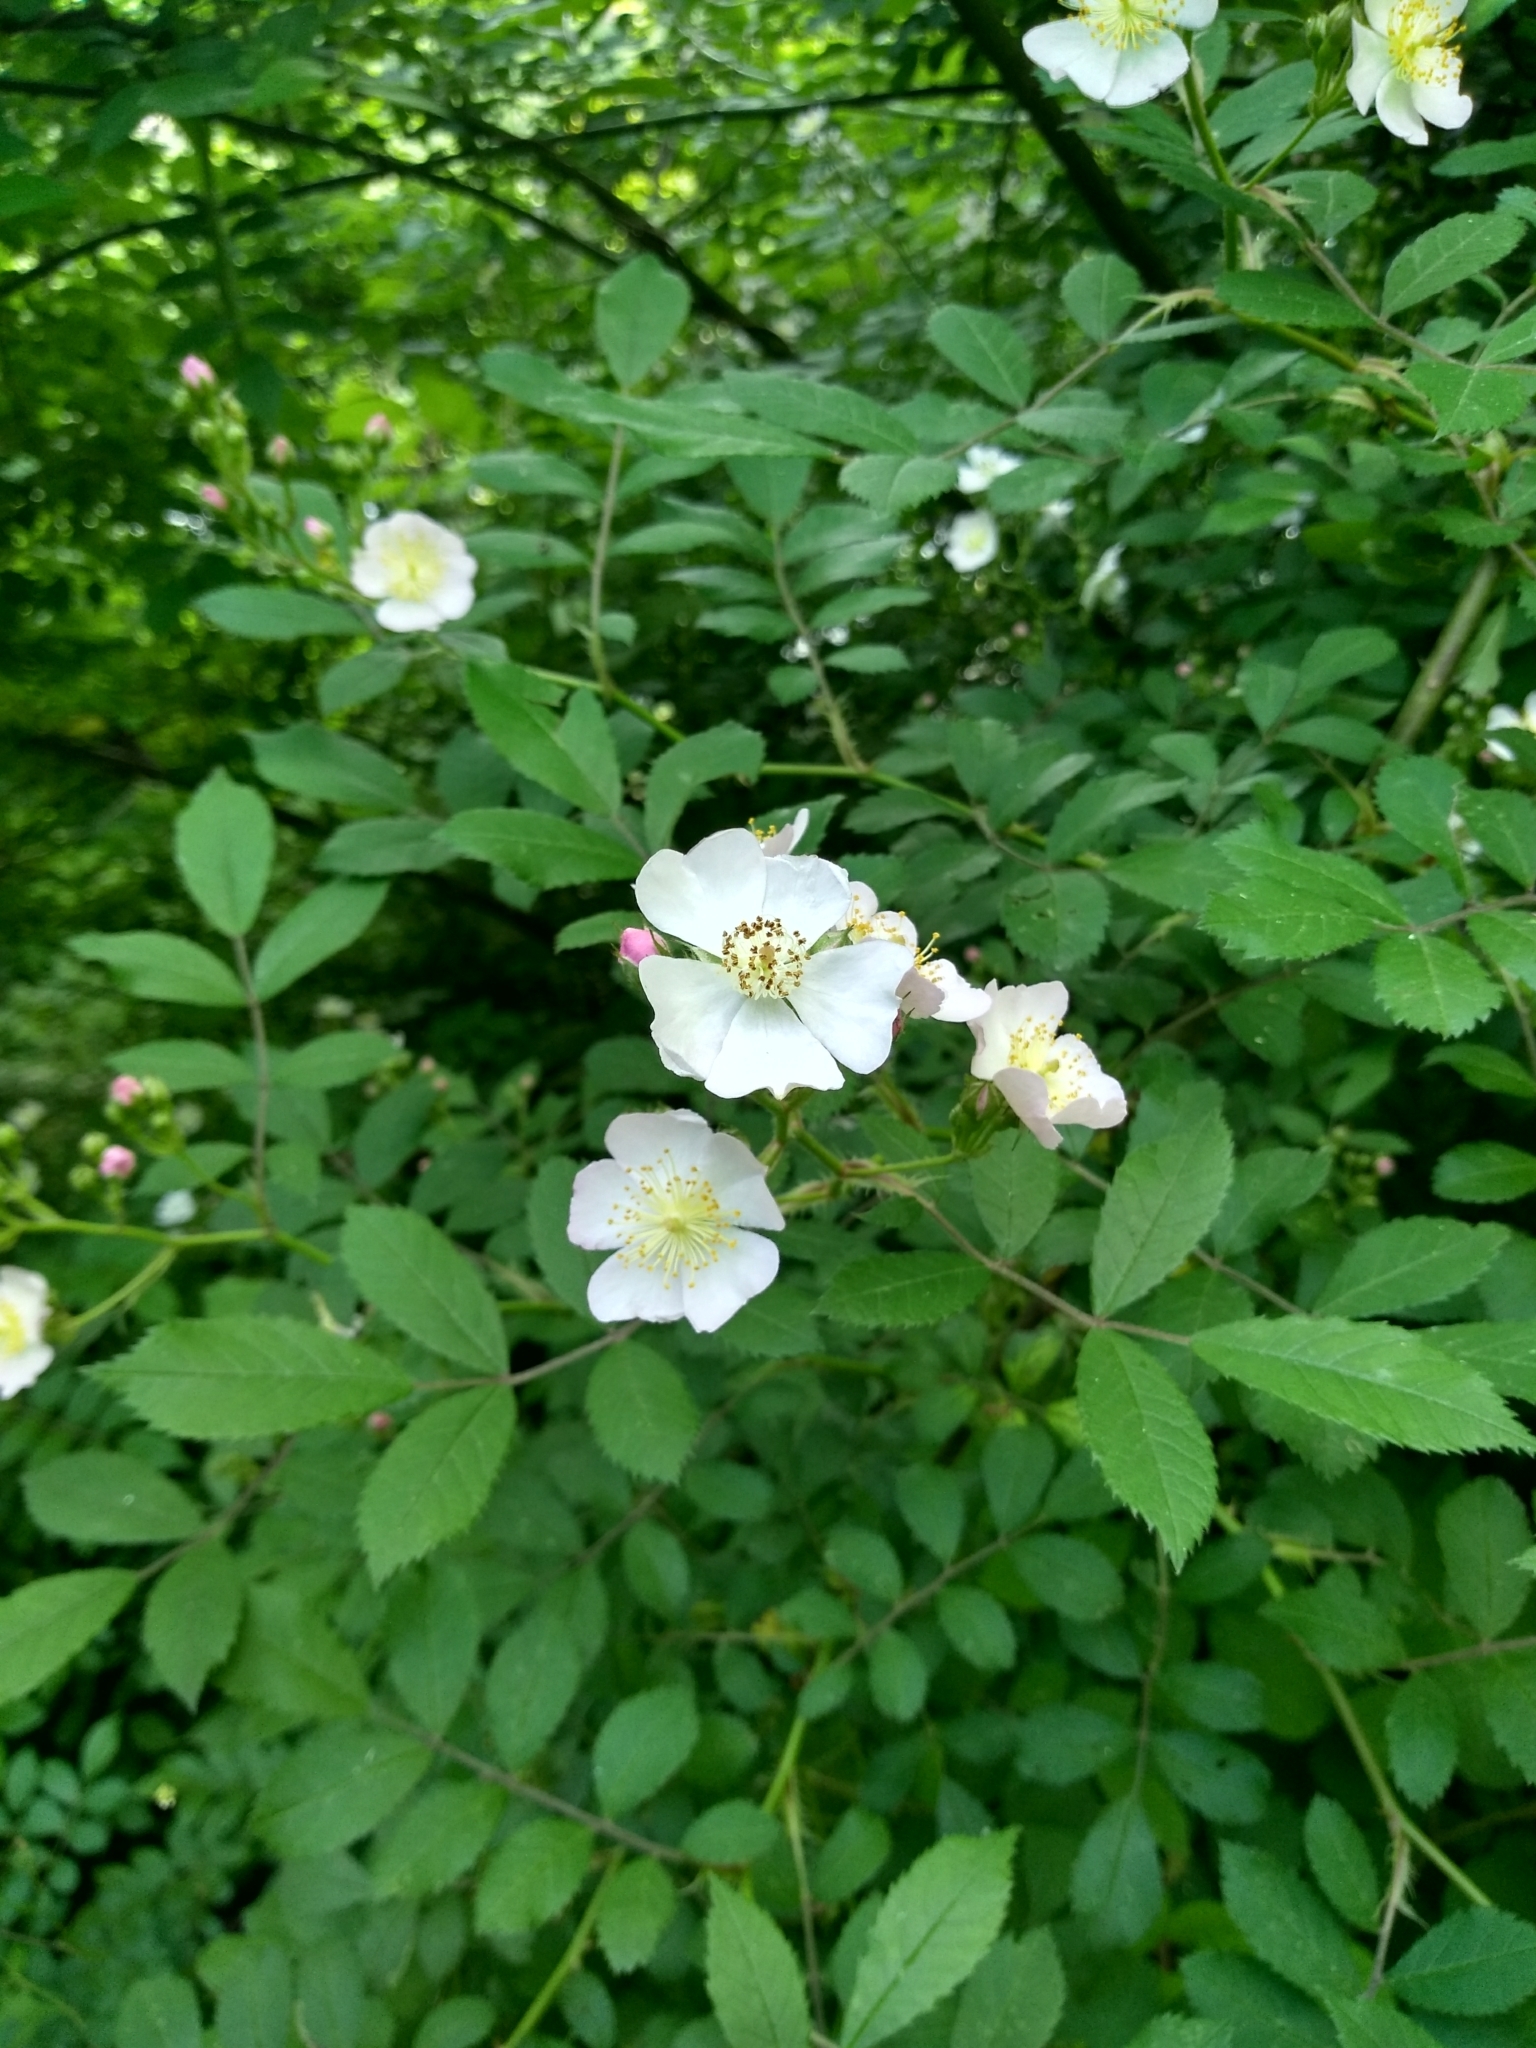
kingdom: Plantae
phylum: Tracheophyta
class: Magnoliopsida
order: Rosales
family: Rosaceae
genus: Rosa
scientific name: Rosa multiflora
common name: Multiflora rose
